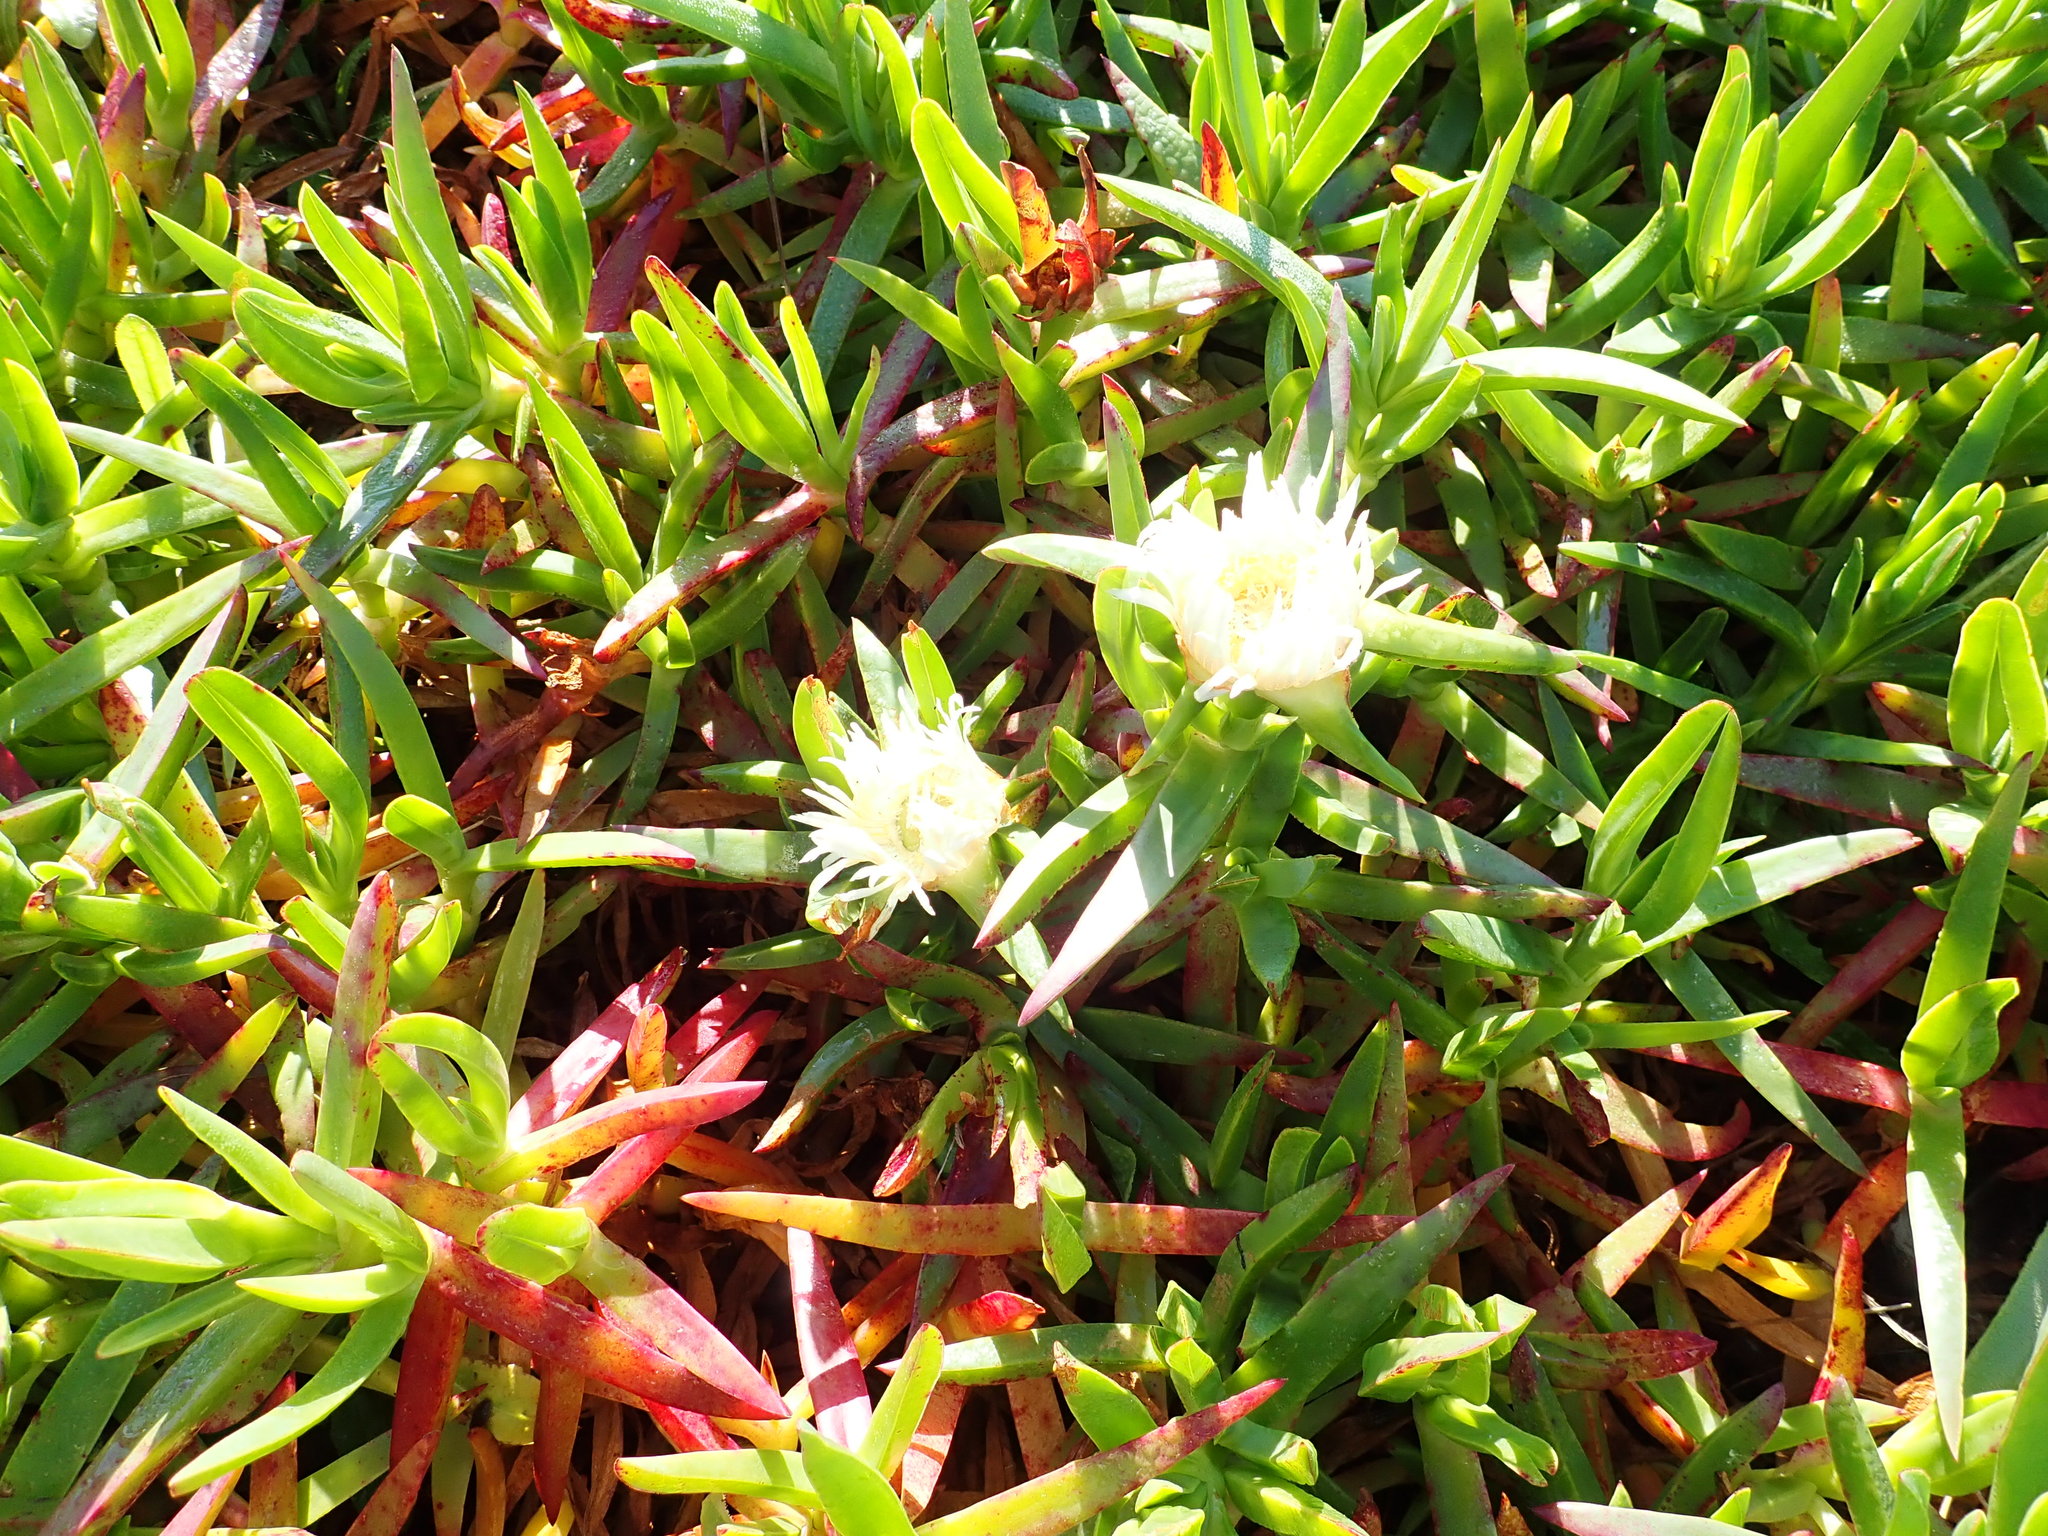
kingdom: Plantae
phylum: Tracheophyta
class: Magnoliopsida
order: Caryophyllales
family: Aizoaceae
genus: Carpobrotus
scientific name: Carpobrotus edulis
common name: Hottentot-fig
